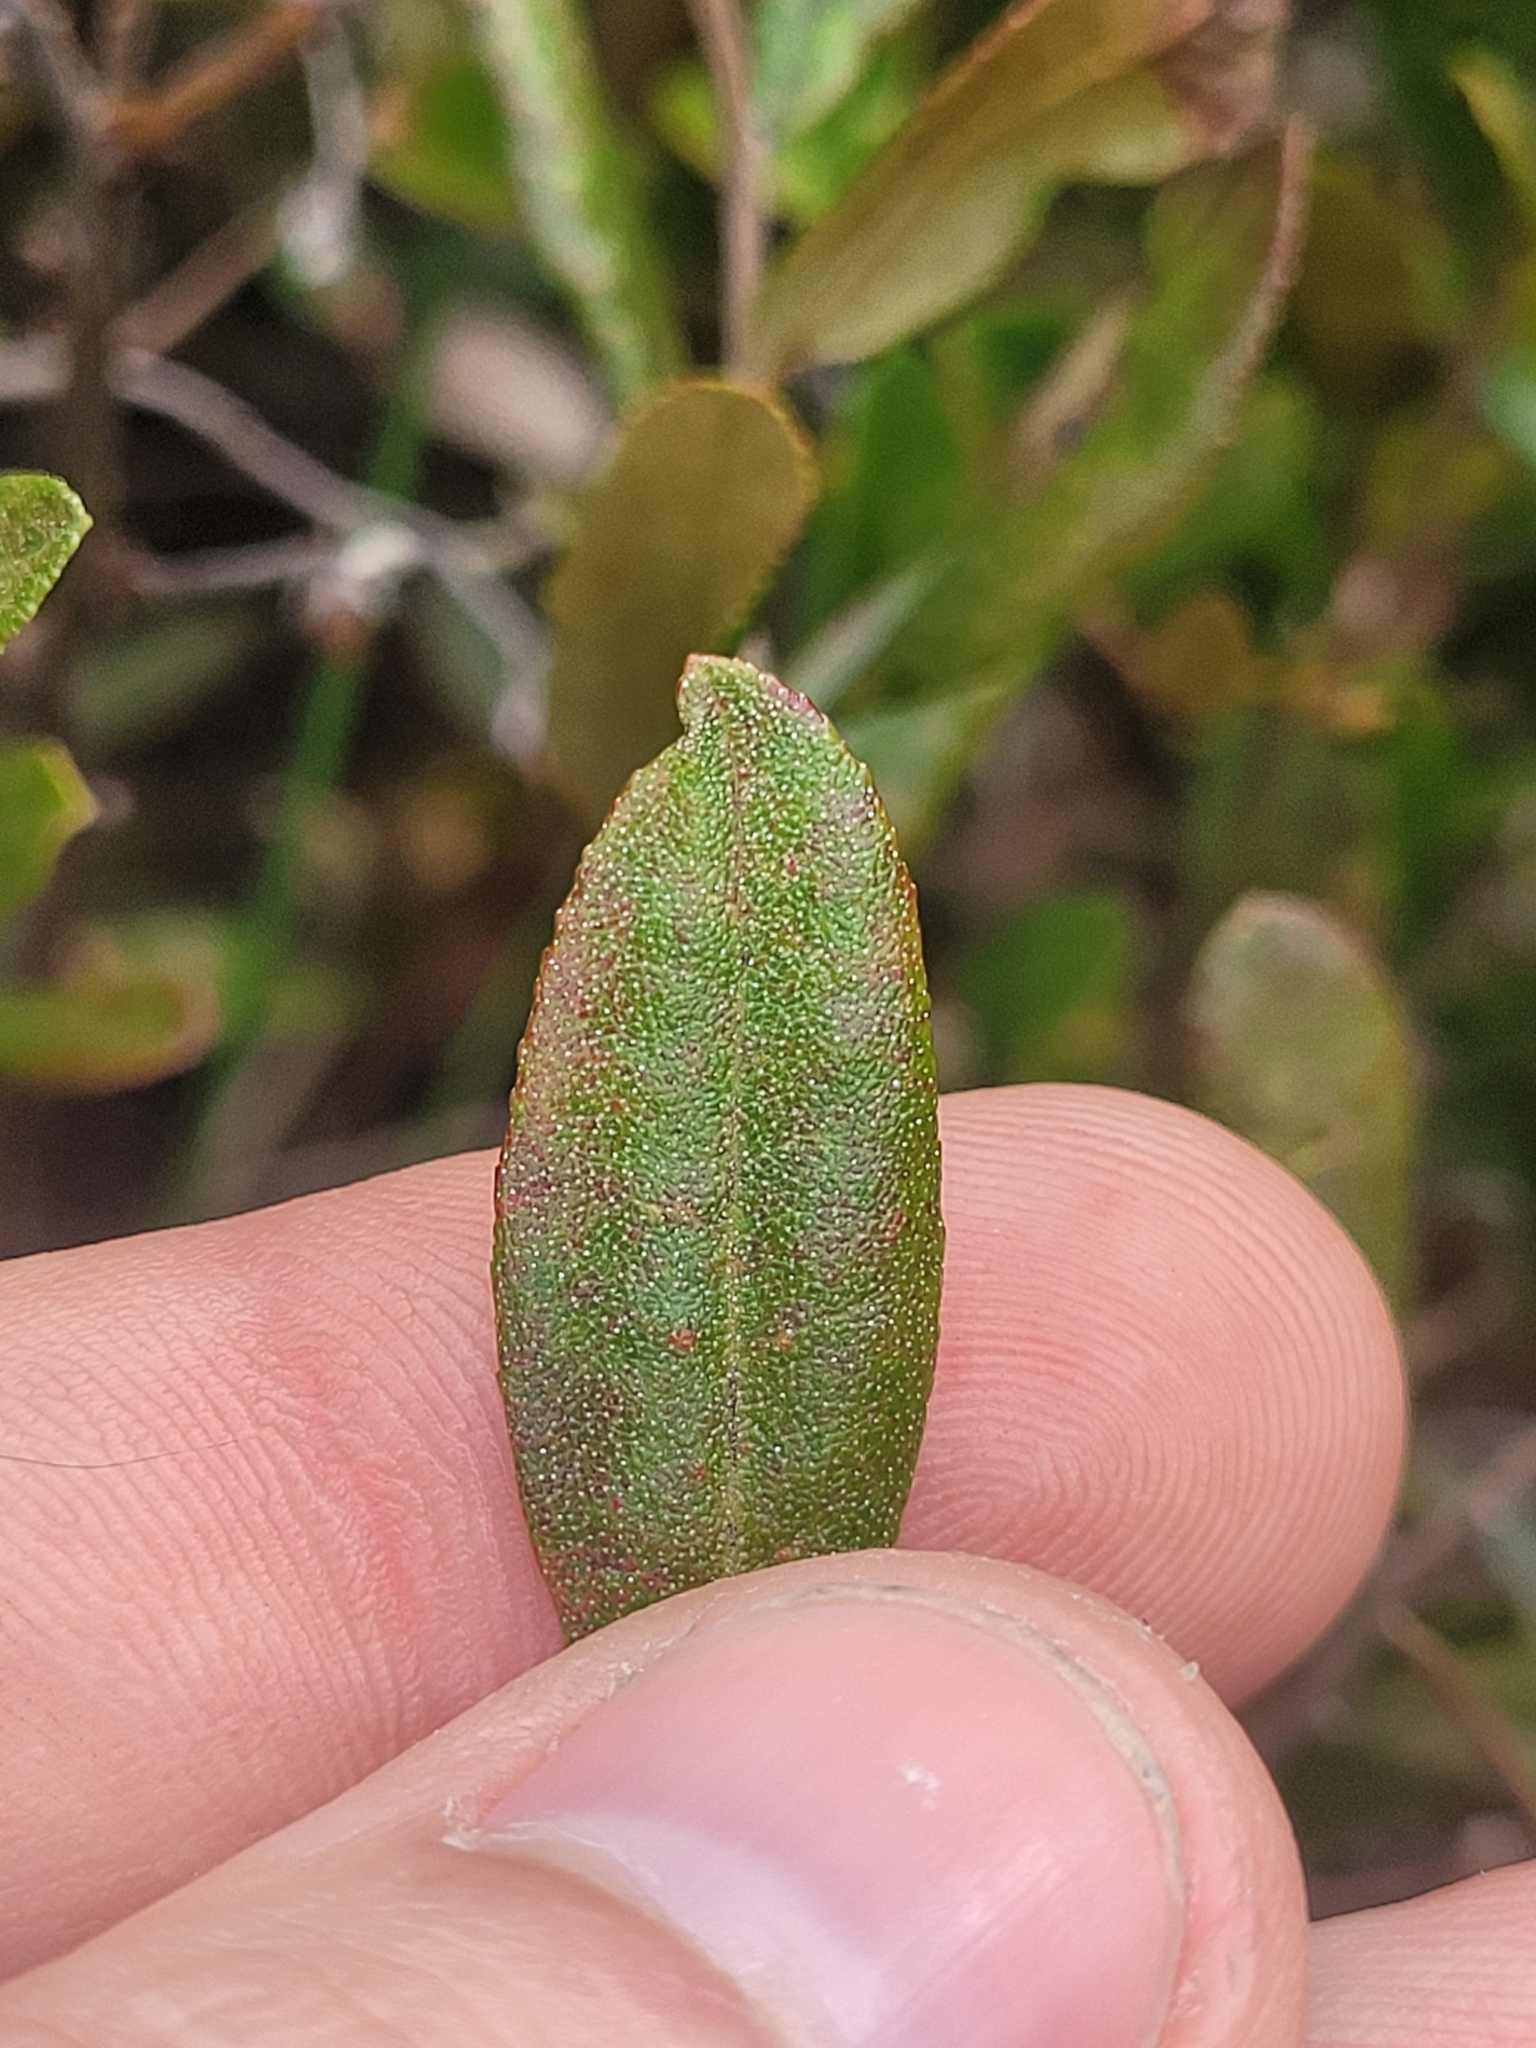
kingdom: Plantae
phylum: Tracheophyta
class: Magnoliopsida
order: Ericales
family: Ericaceae
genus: Chamaedaphne
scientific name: Chamaedaphne calyculata
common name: Leatherleaf
